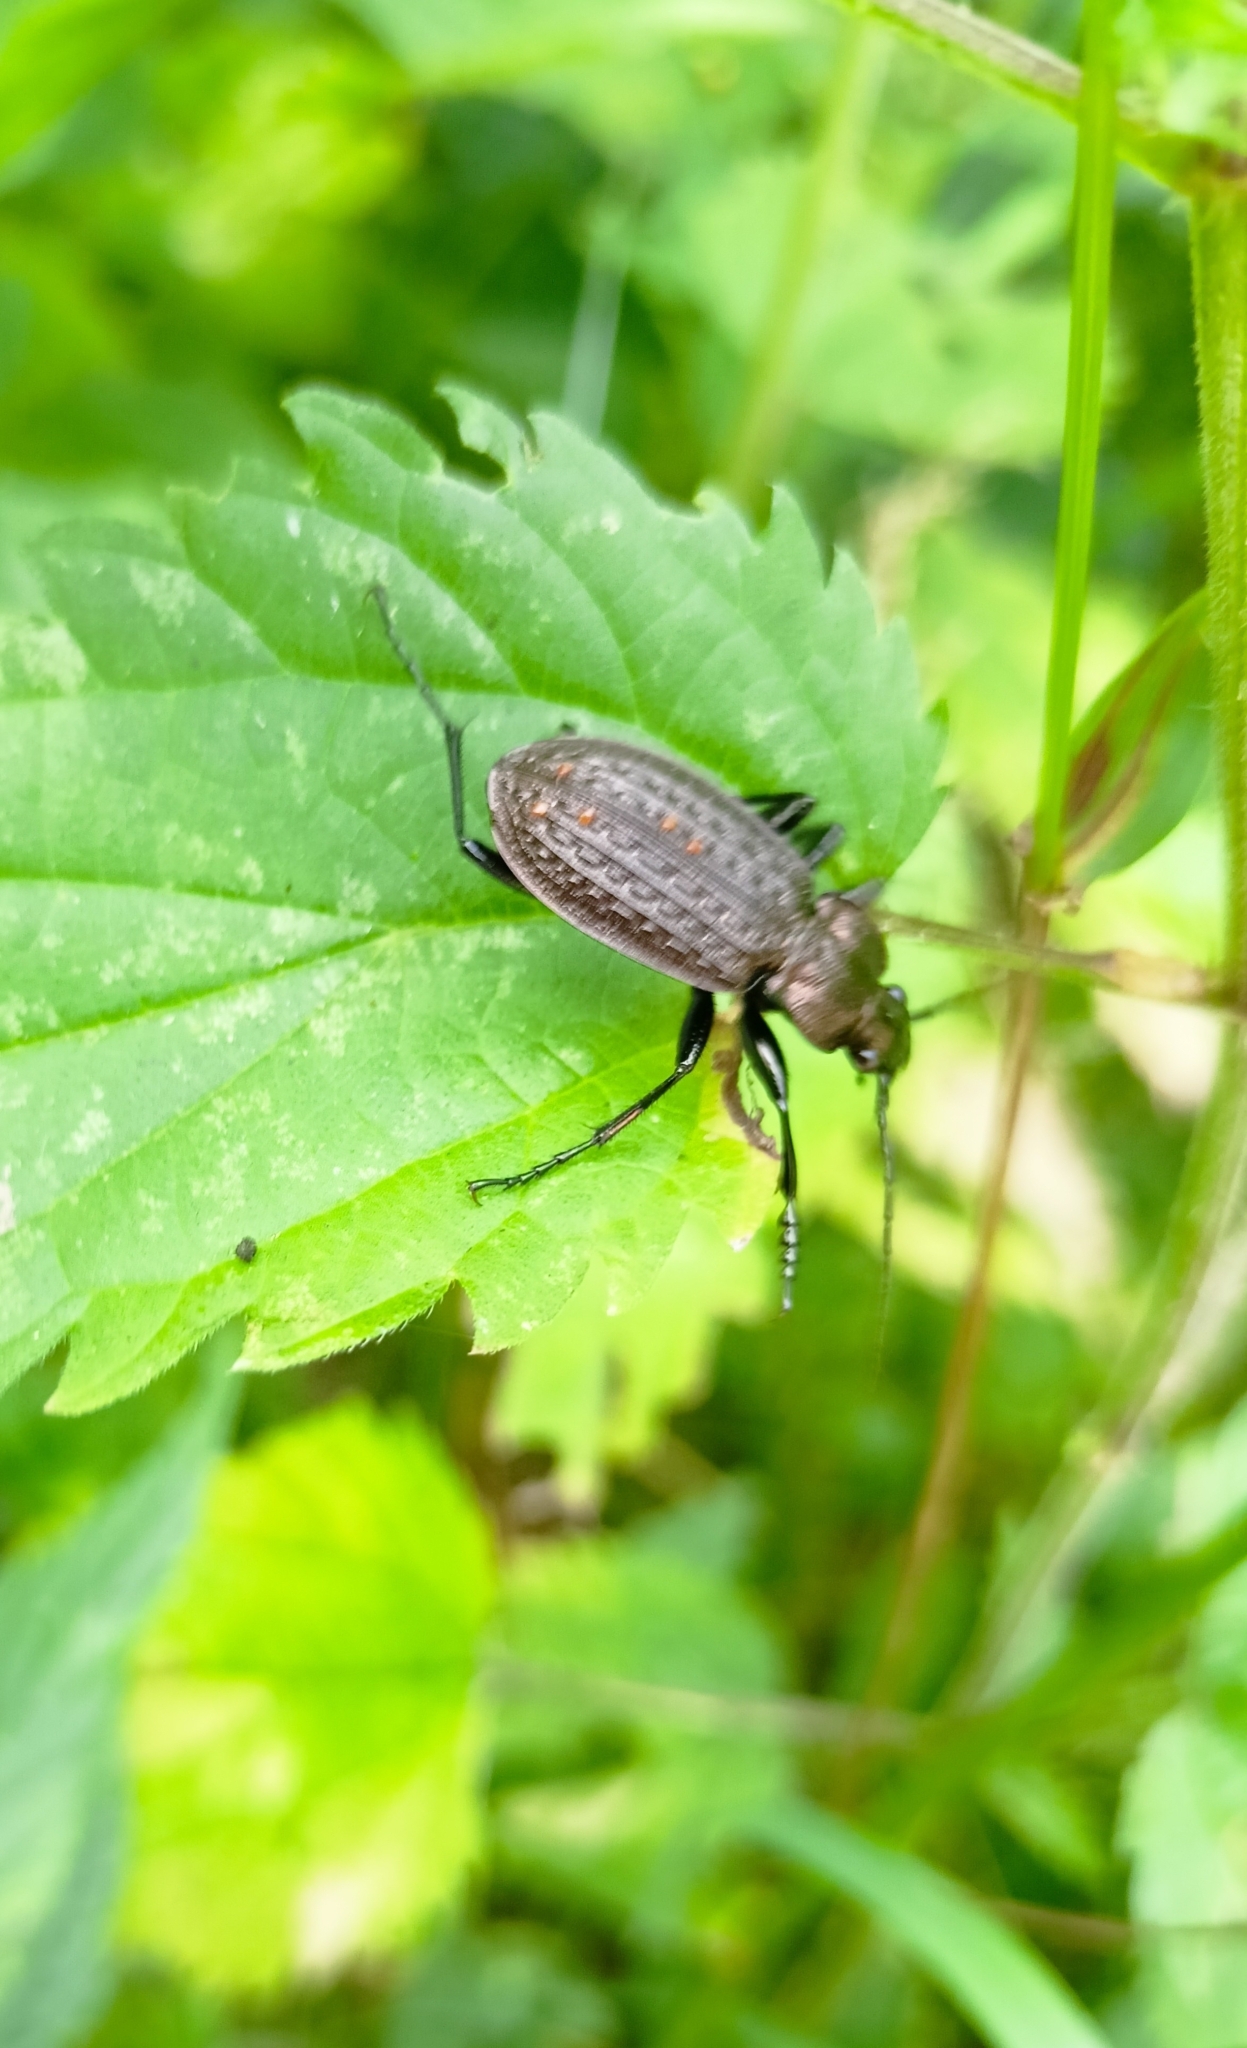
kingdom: Animalia
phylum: Arthropoda
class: Insecta
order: Coleoptera
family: Carabidae
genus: Carabus
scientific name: Carabus granulatus
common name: Granulate ground beetle
